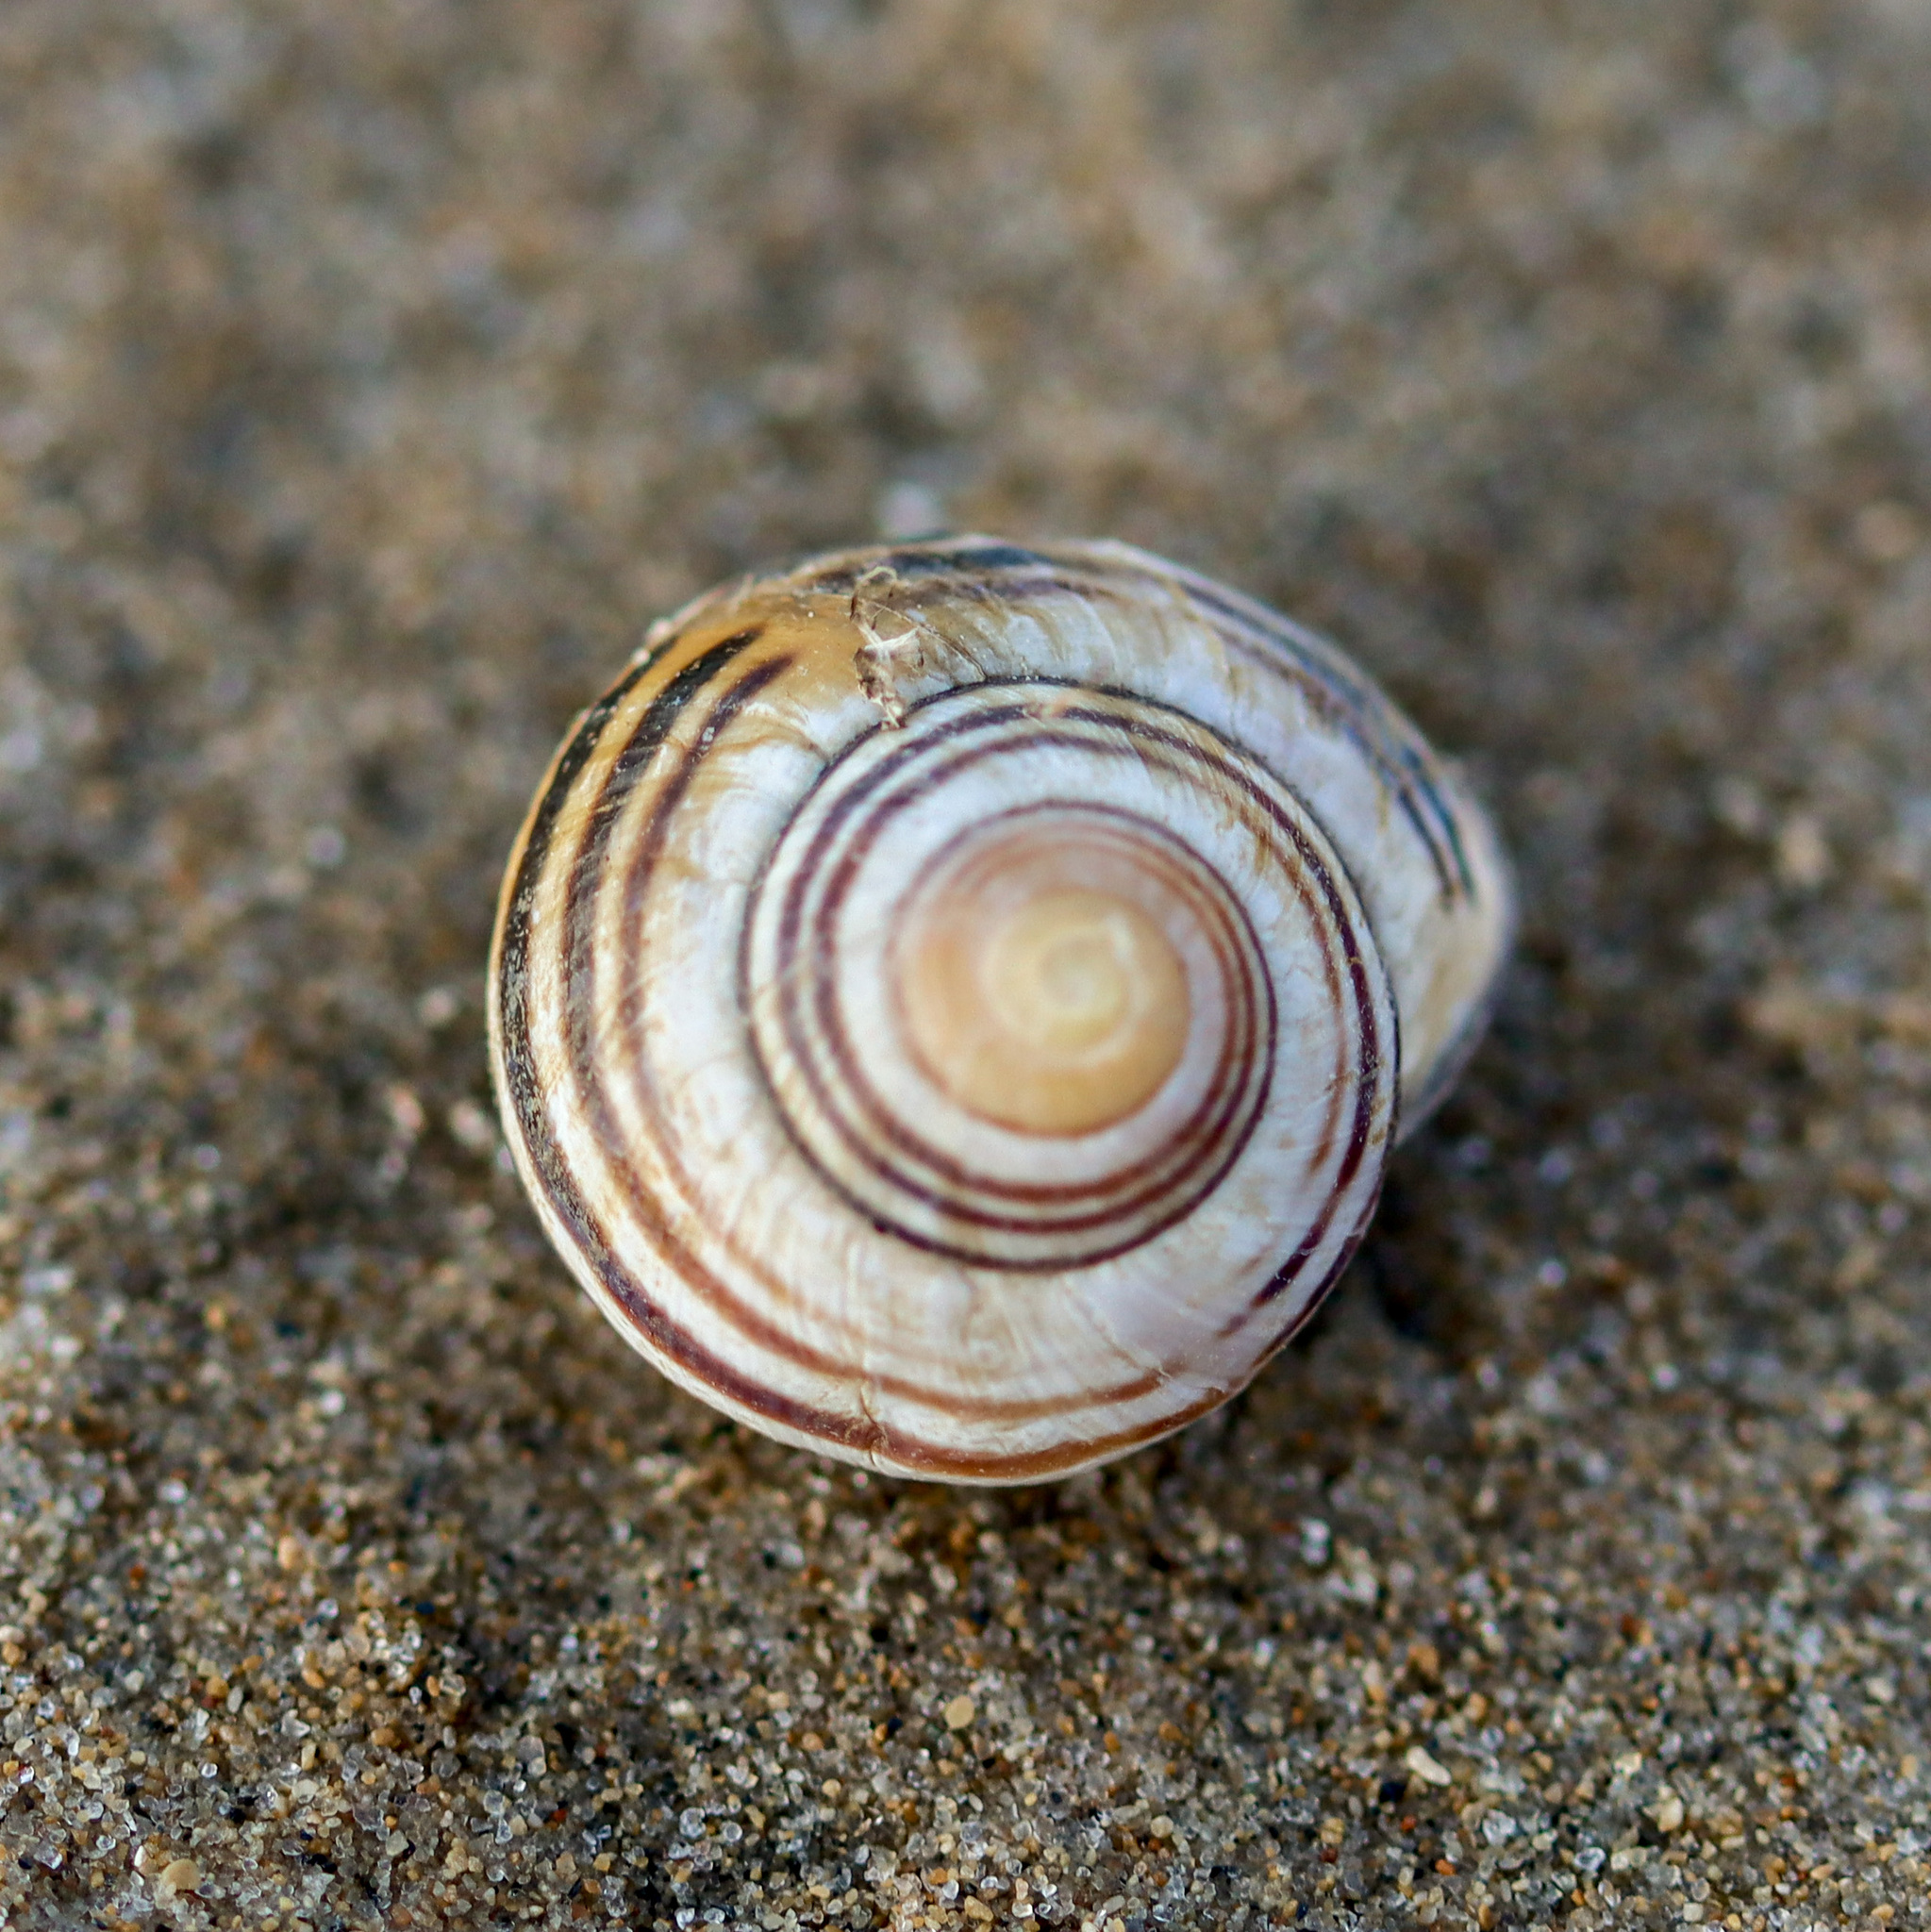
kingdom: Animalia
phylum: Mollusca
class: Gastropoda
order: Stylommatophora
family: Helicidae
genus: Cepaea
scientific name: Cepaea nemoralis
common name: Grovesnail
